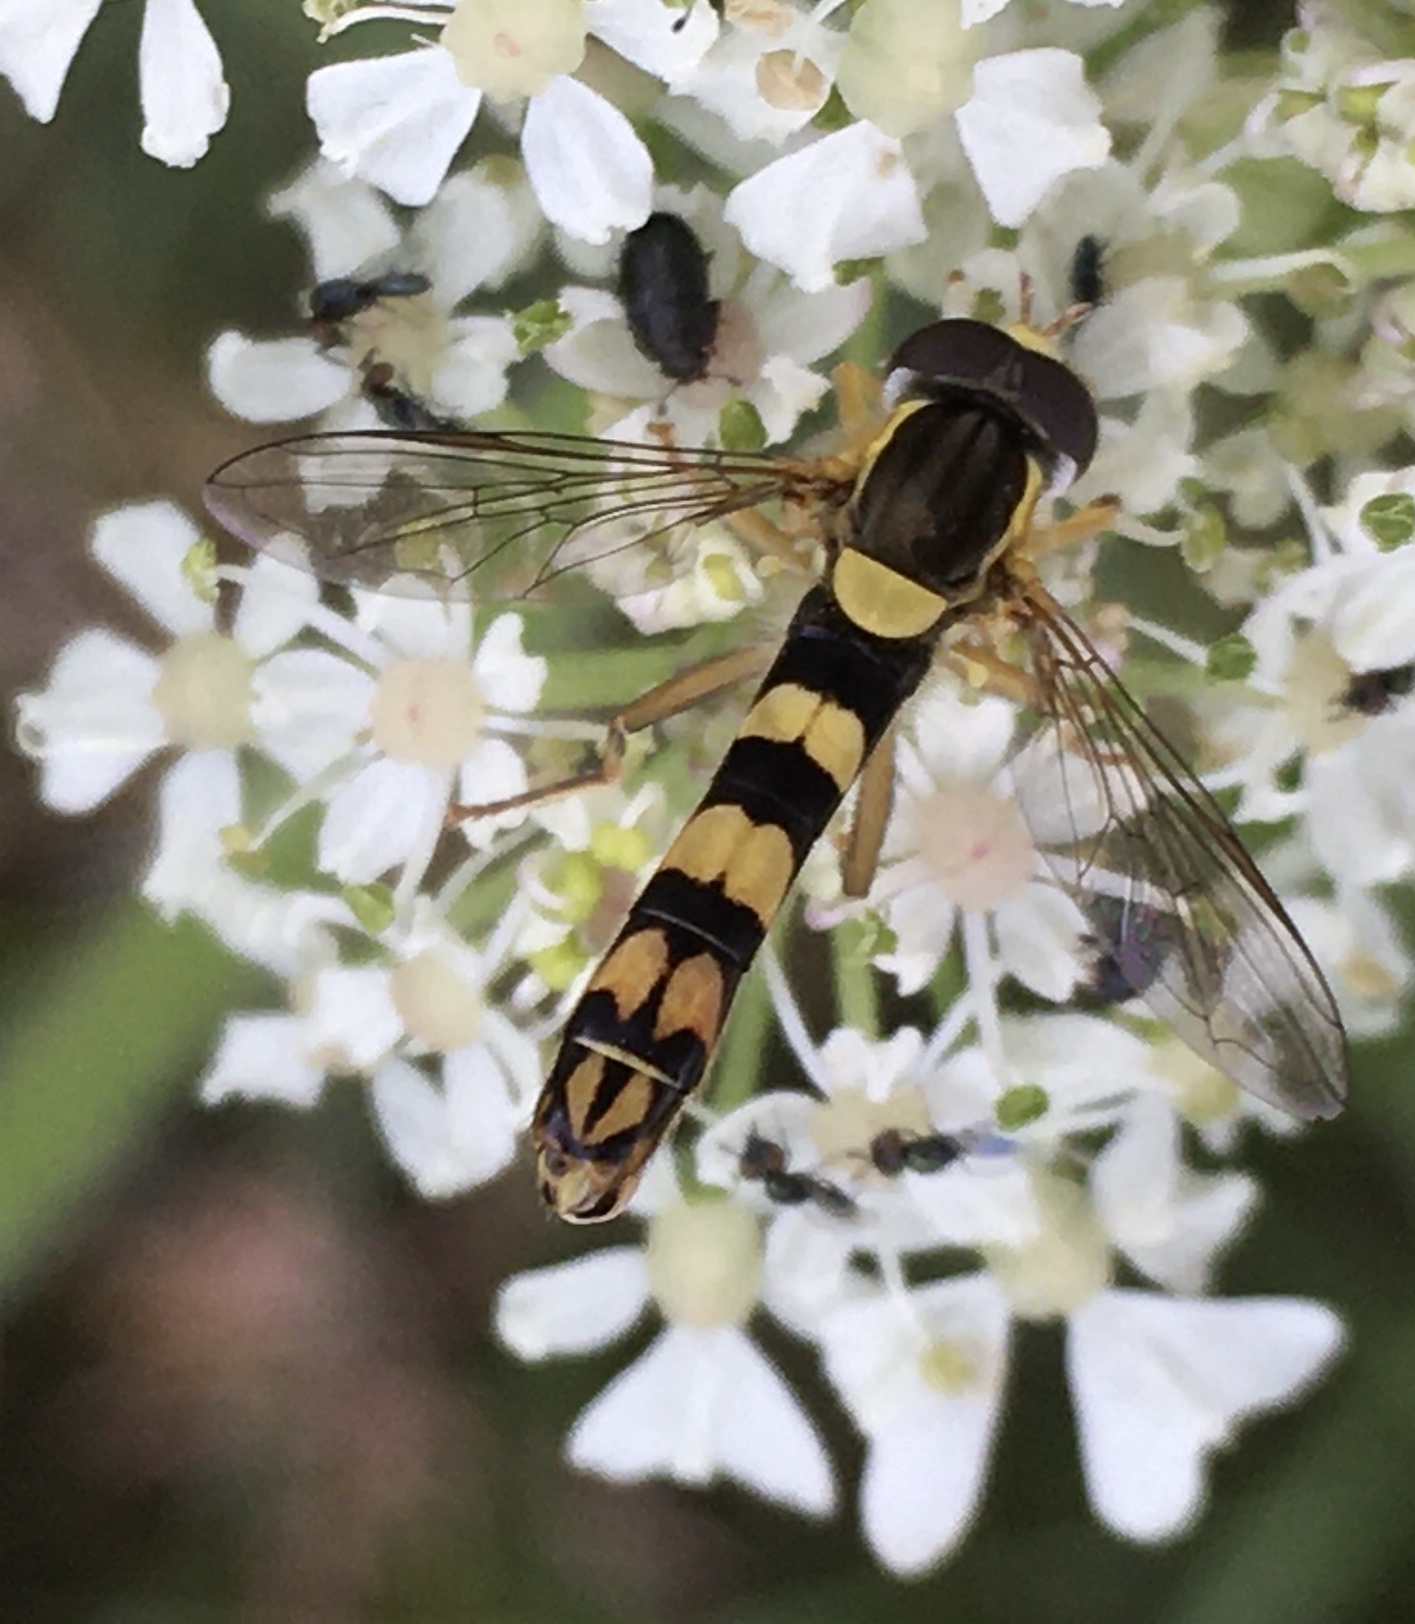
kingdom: Animalia
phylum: Arthropoda
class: Insecta
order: Diptera
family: Syrphidae
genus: Sphaerophoria
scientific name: Sphaerophoria scripta
